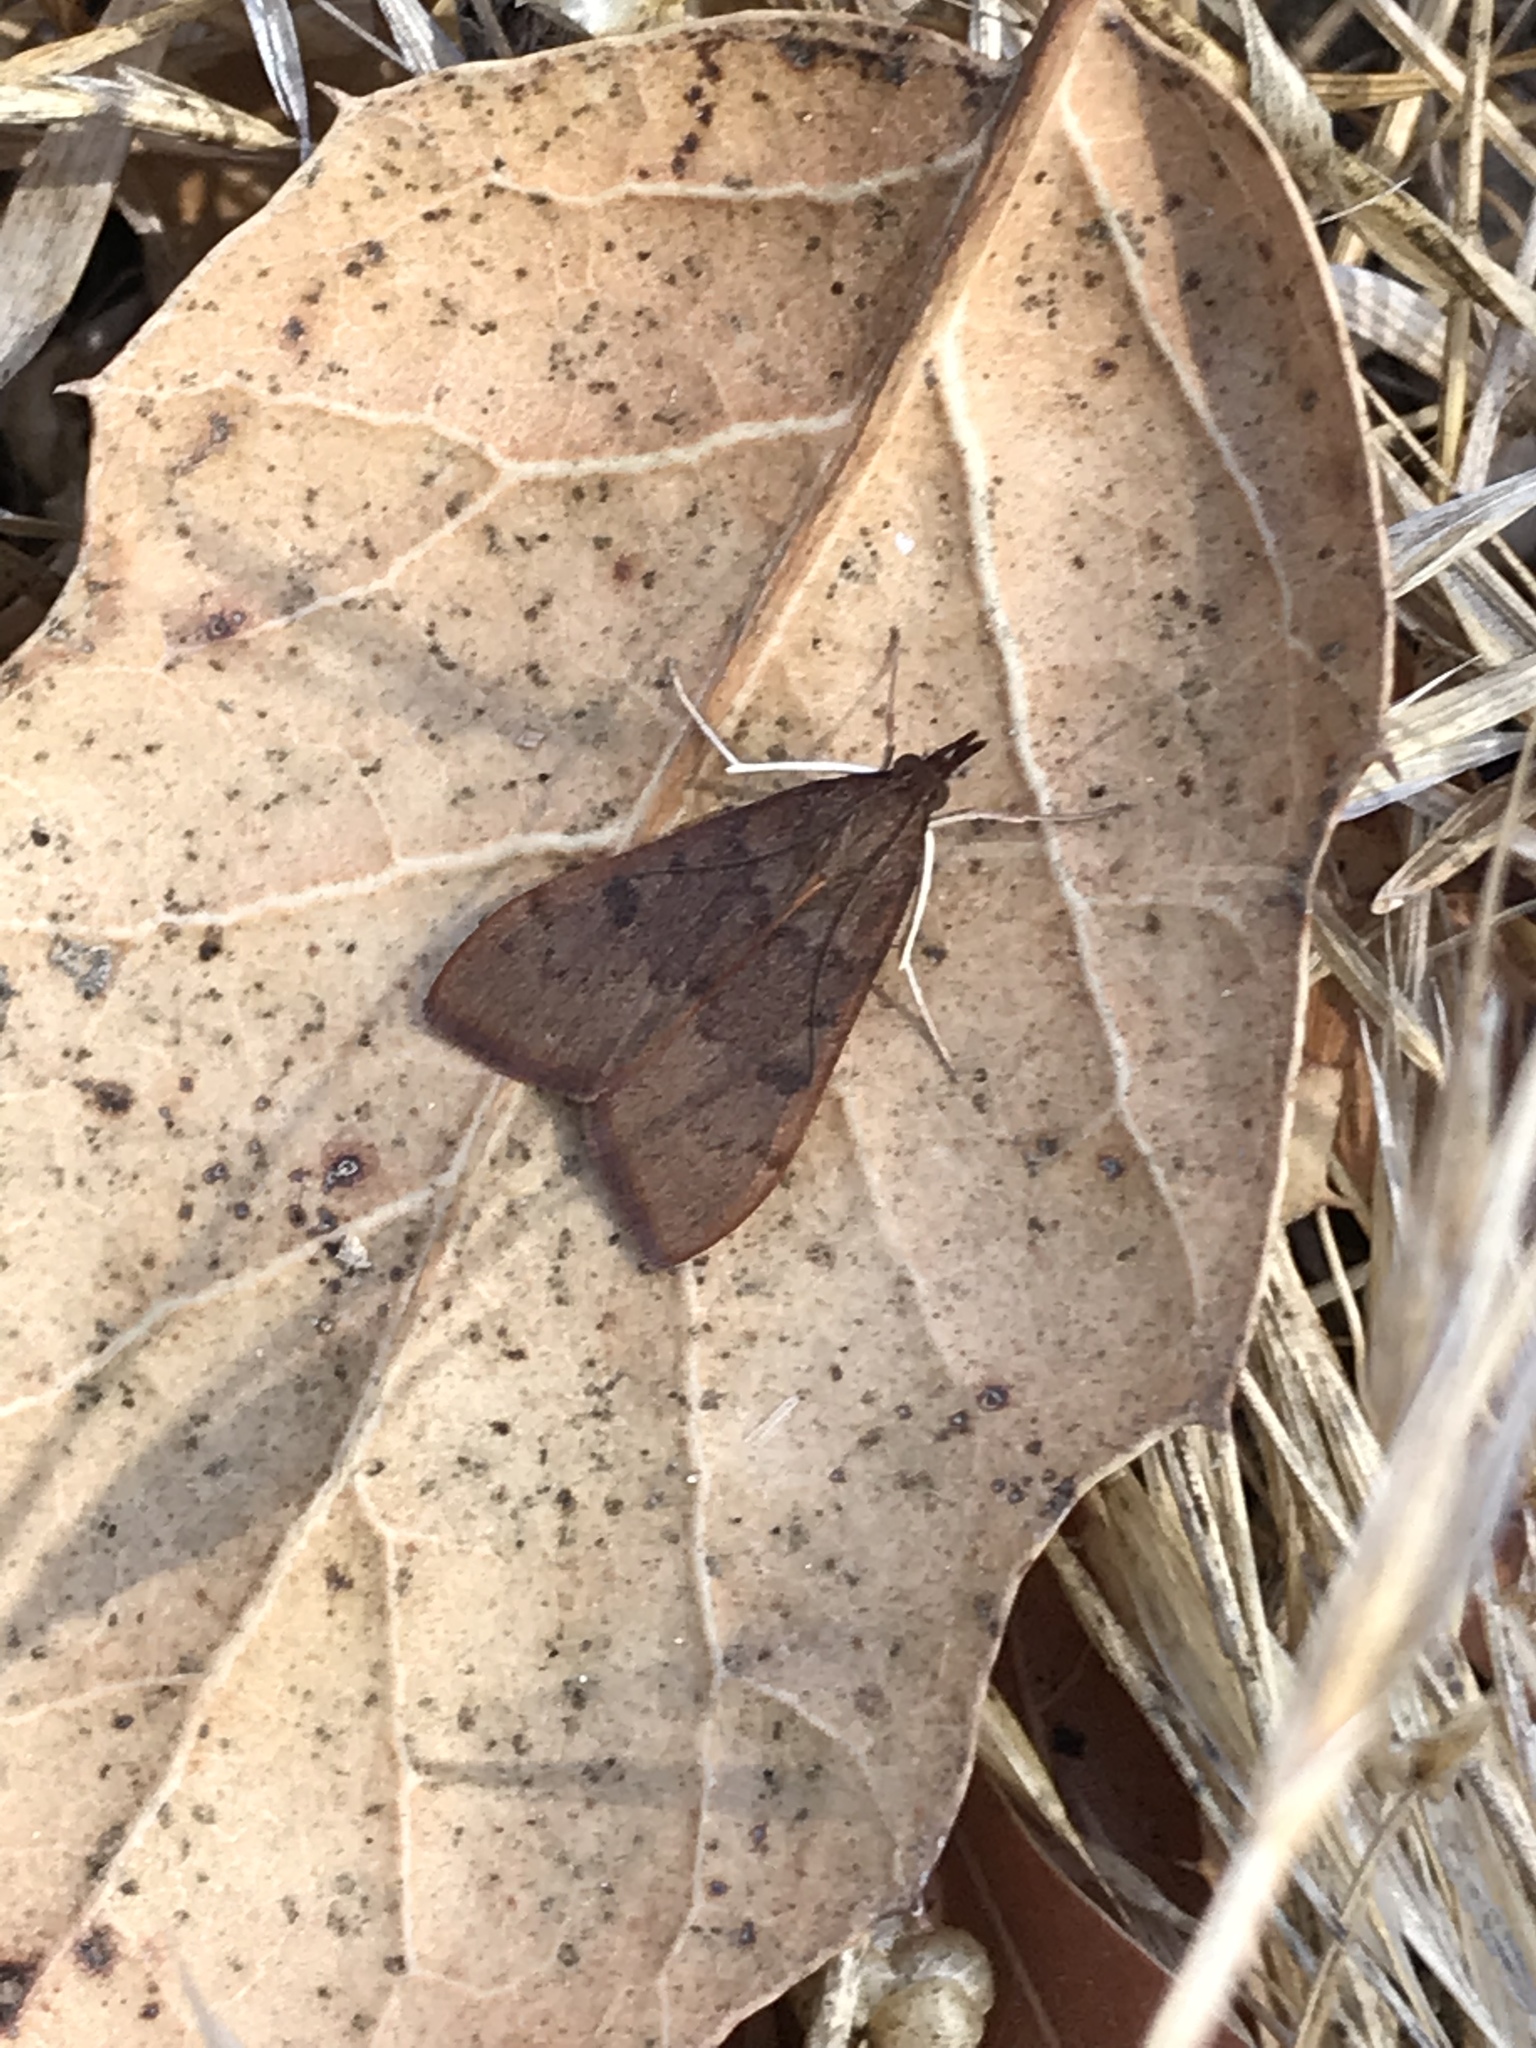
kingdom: Animalia
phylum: Arthropoda
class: Insecta
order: Lepidoptera
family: Crambidae
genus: Uresiphita
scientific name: Uresiphita reversalis
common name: Genista broom moth
